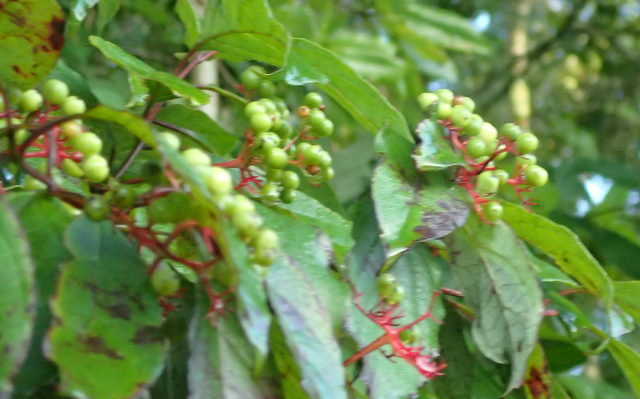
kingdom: Plantae
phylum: Tracheophyta
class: Magnoliopsida
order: Cornales
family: Cornaceae
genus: Cornus
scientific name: Cornus foemina
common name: Swamp dogwood
